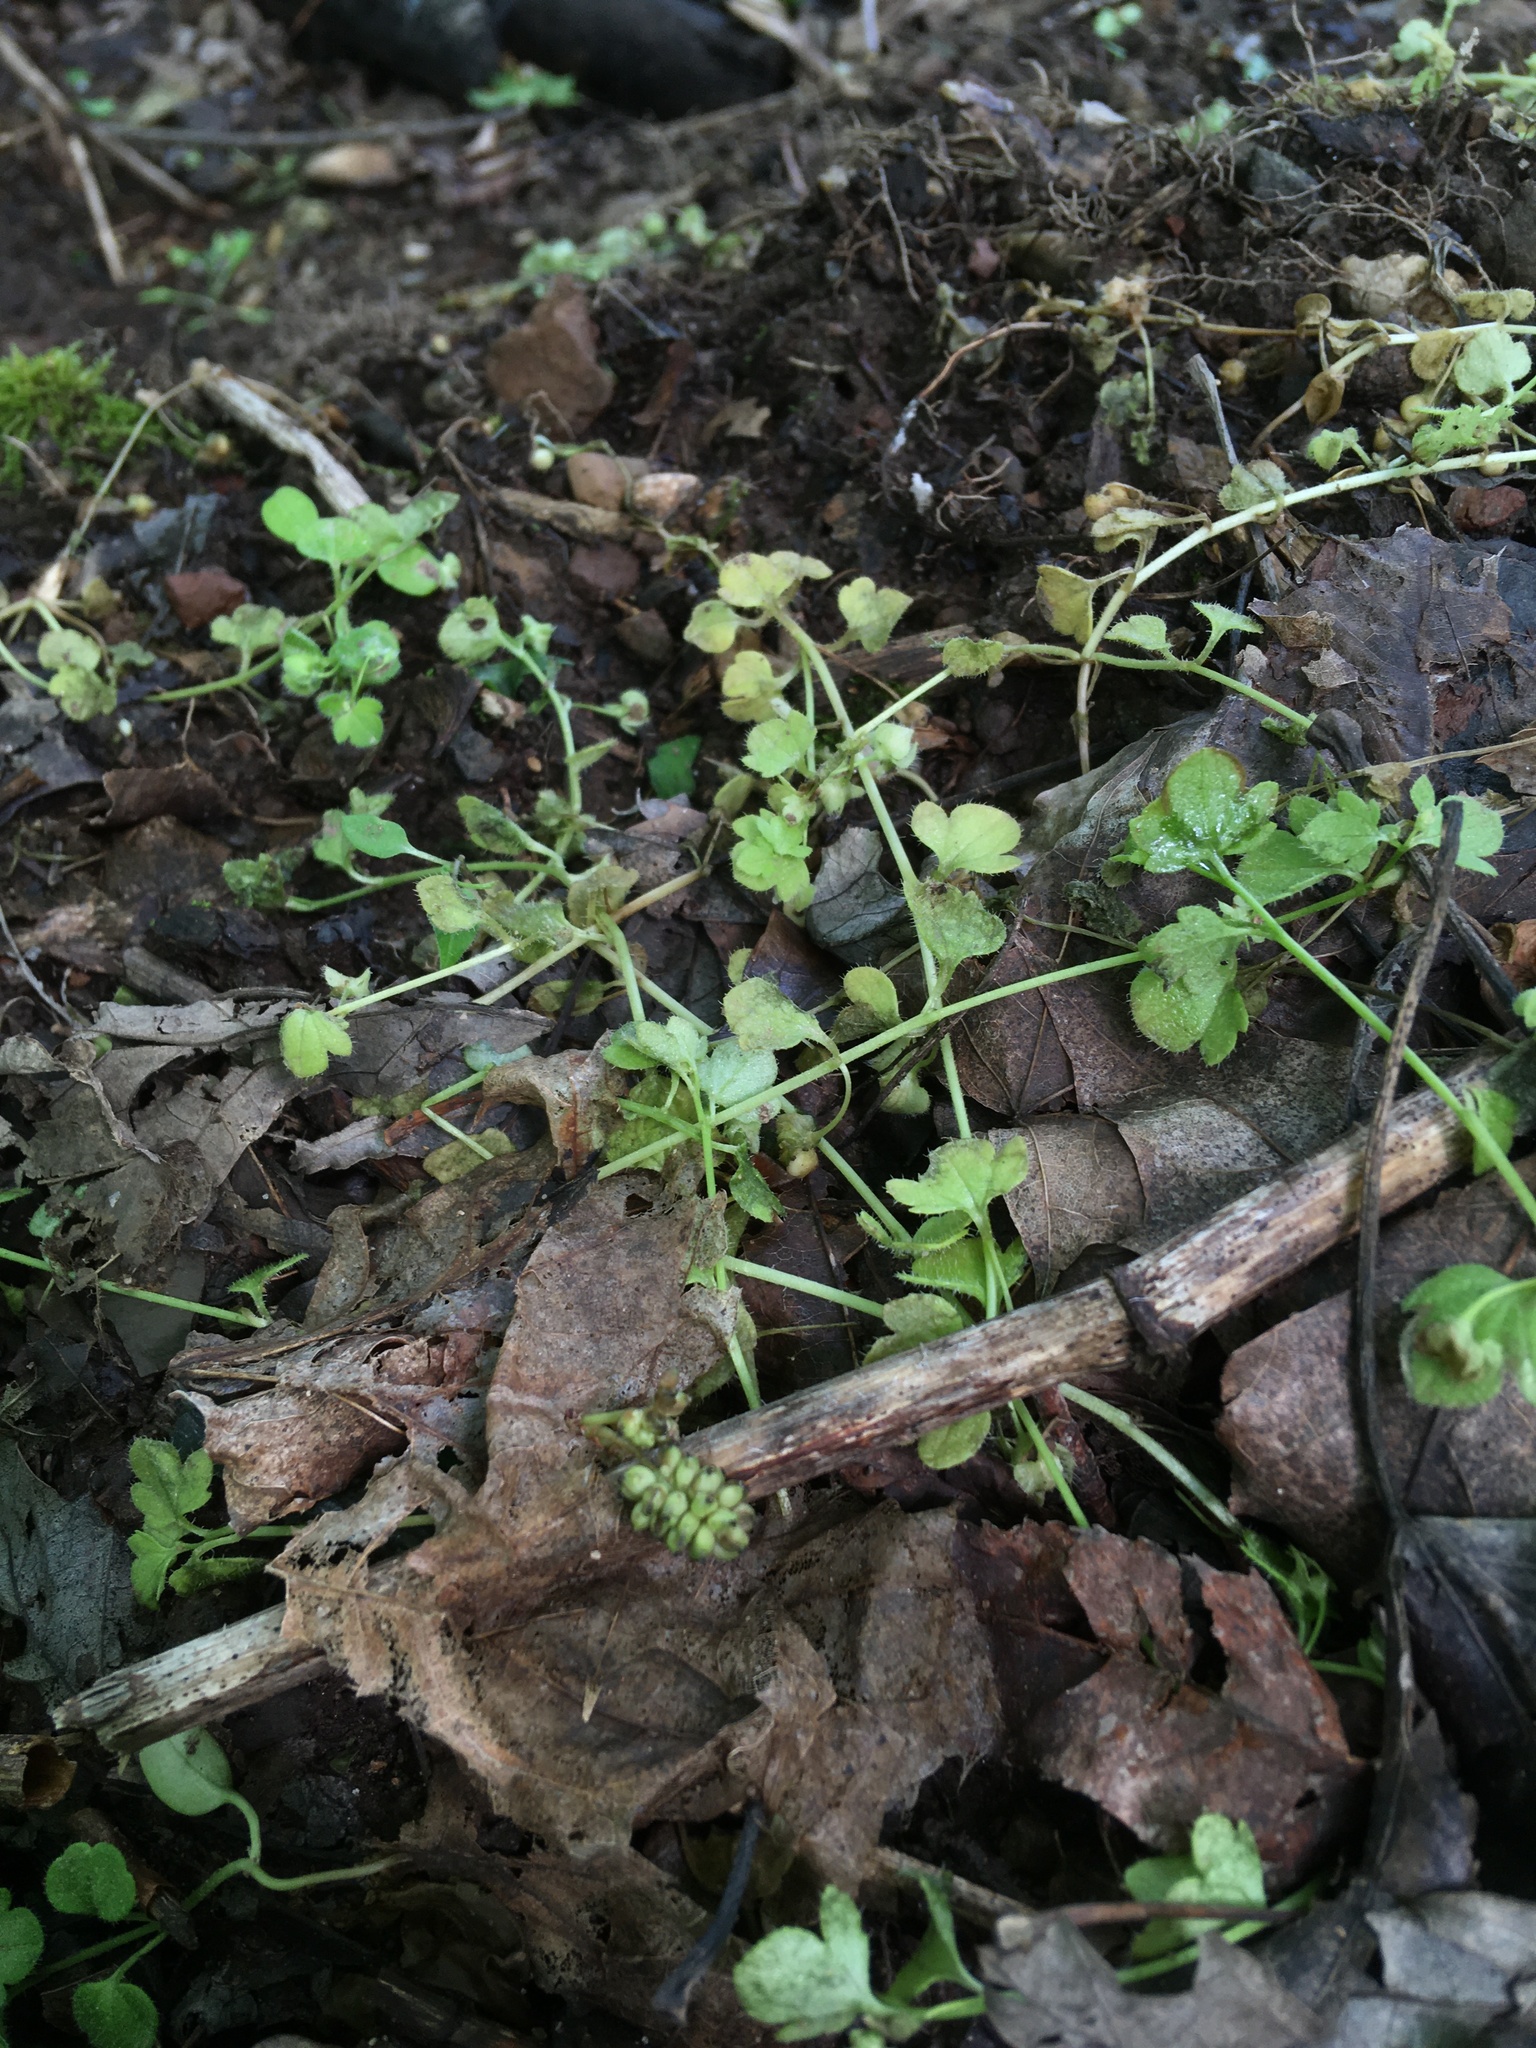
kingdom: Plantae
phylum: Tracheophyta
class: Magnoliopsida
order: Lamiales
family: Plantaginaceae
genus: Veronica
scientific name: Veronica hederifolia
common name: Ivy-leaved speedwell
